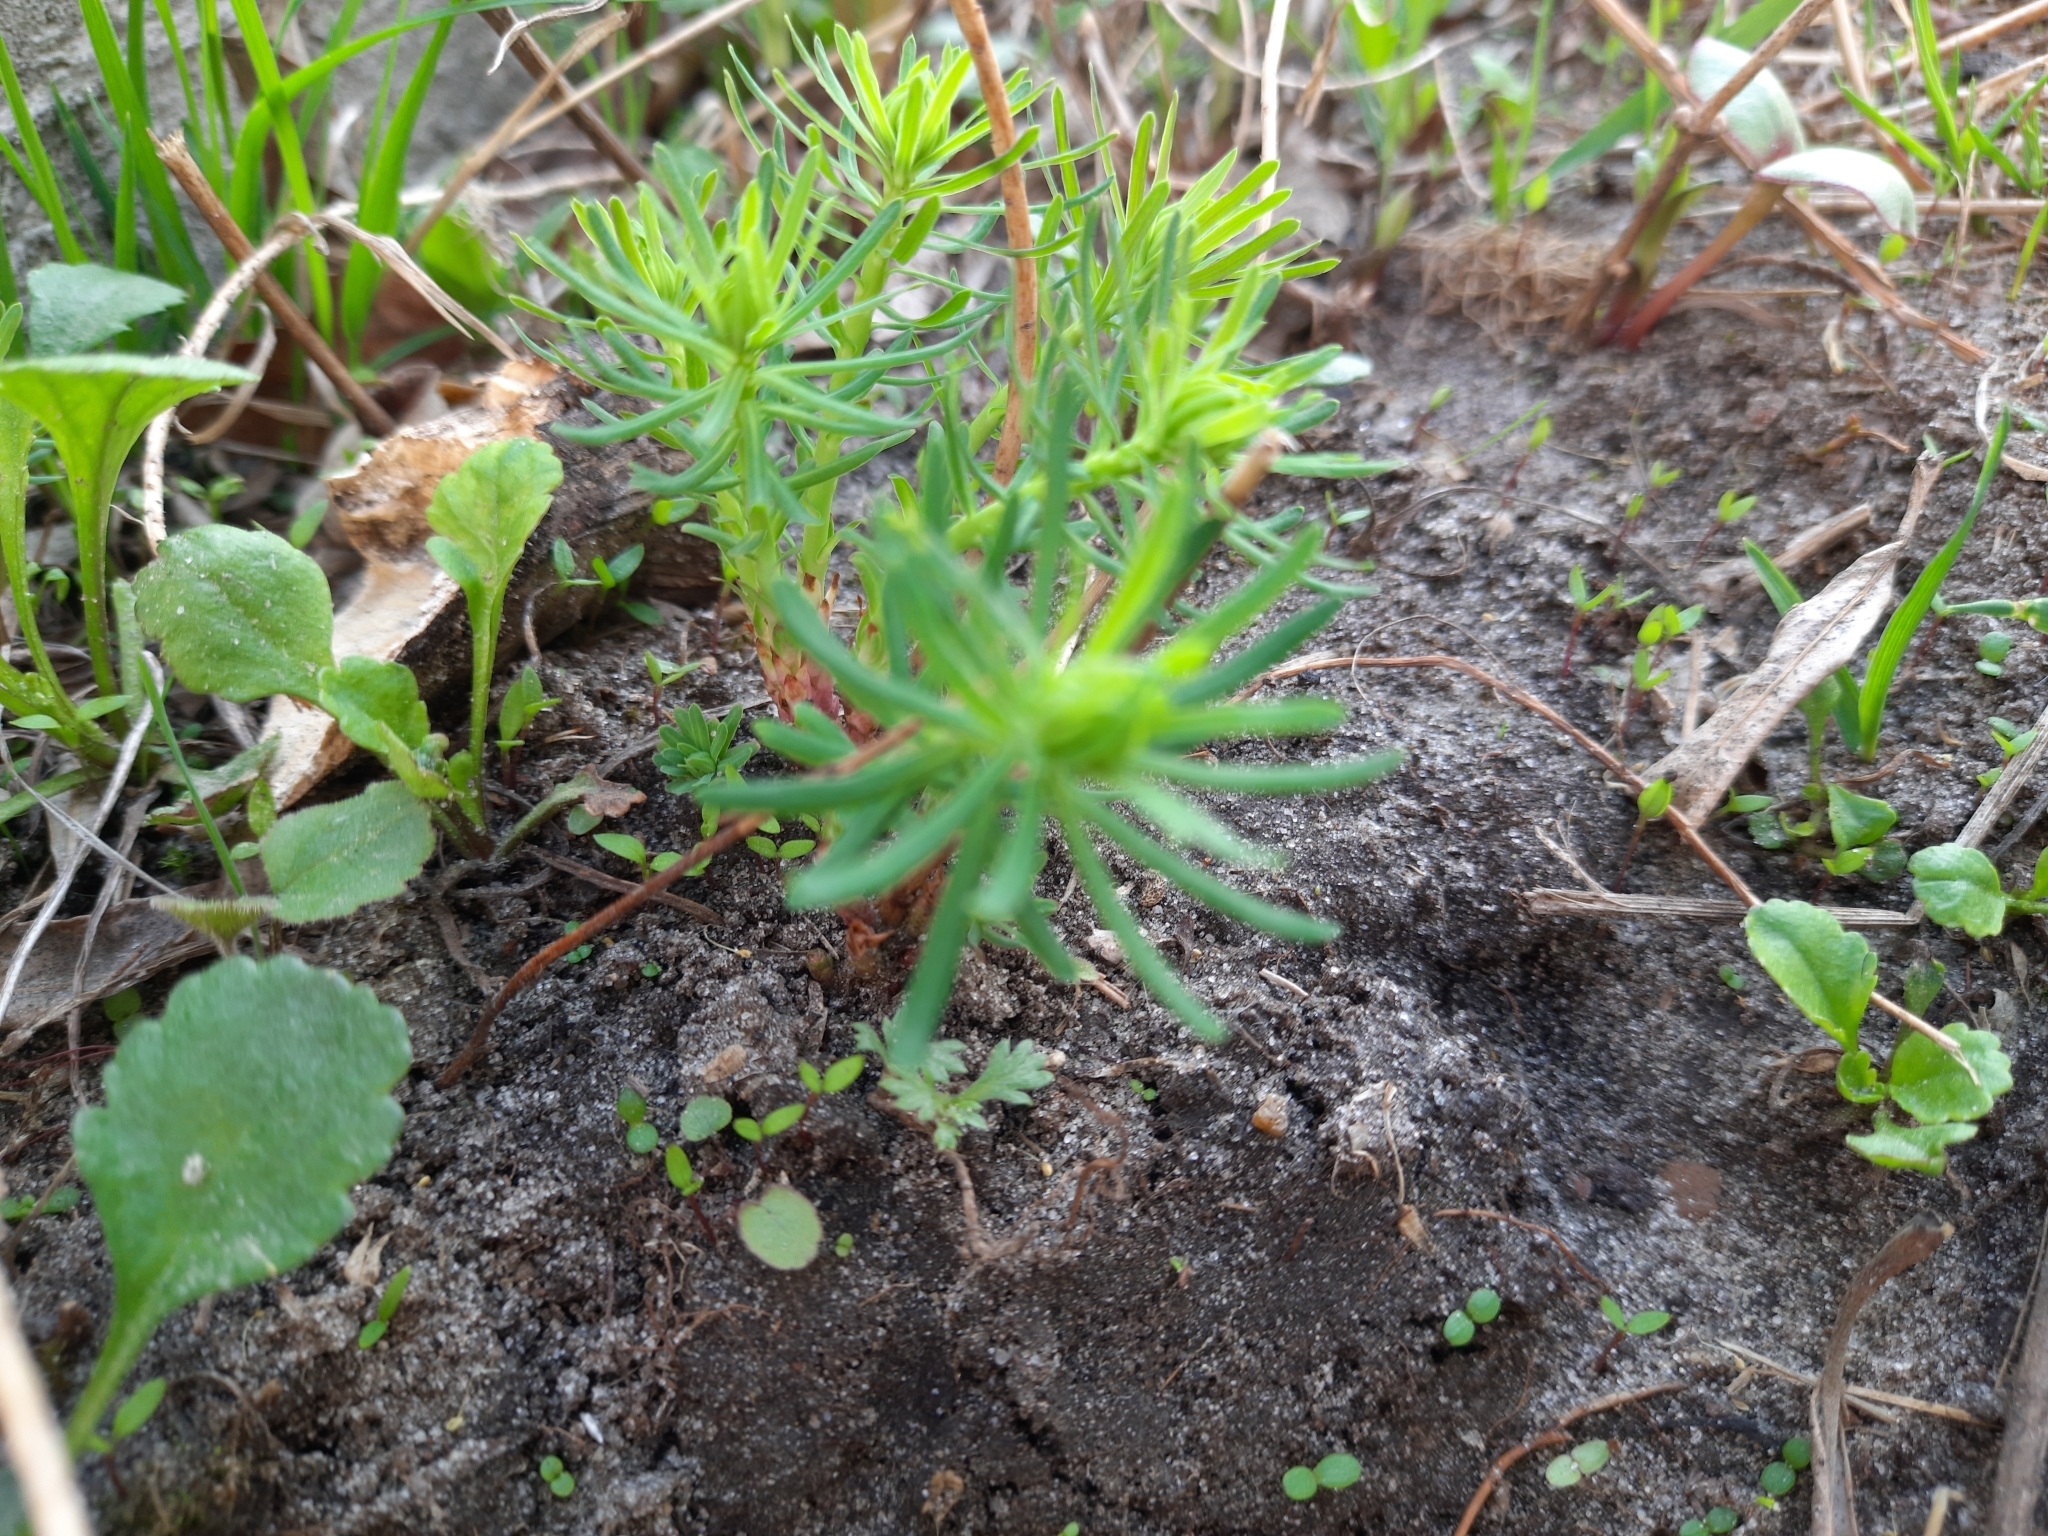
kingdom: Plantae
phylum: Tracheophyta
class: Magnoliopsida
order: Malpighiales
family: Euphorbiaceae
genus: Euphorbia
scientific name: Euphorbia cyparissias
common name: Cypress spurge
